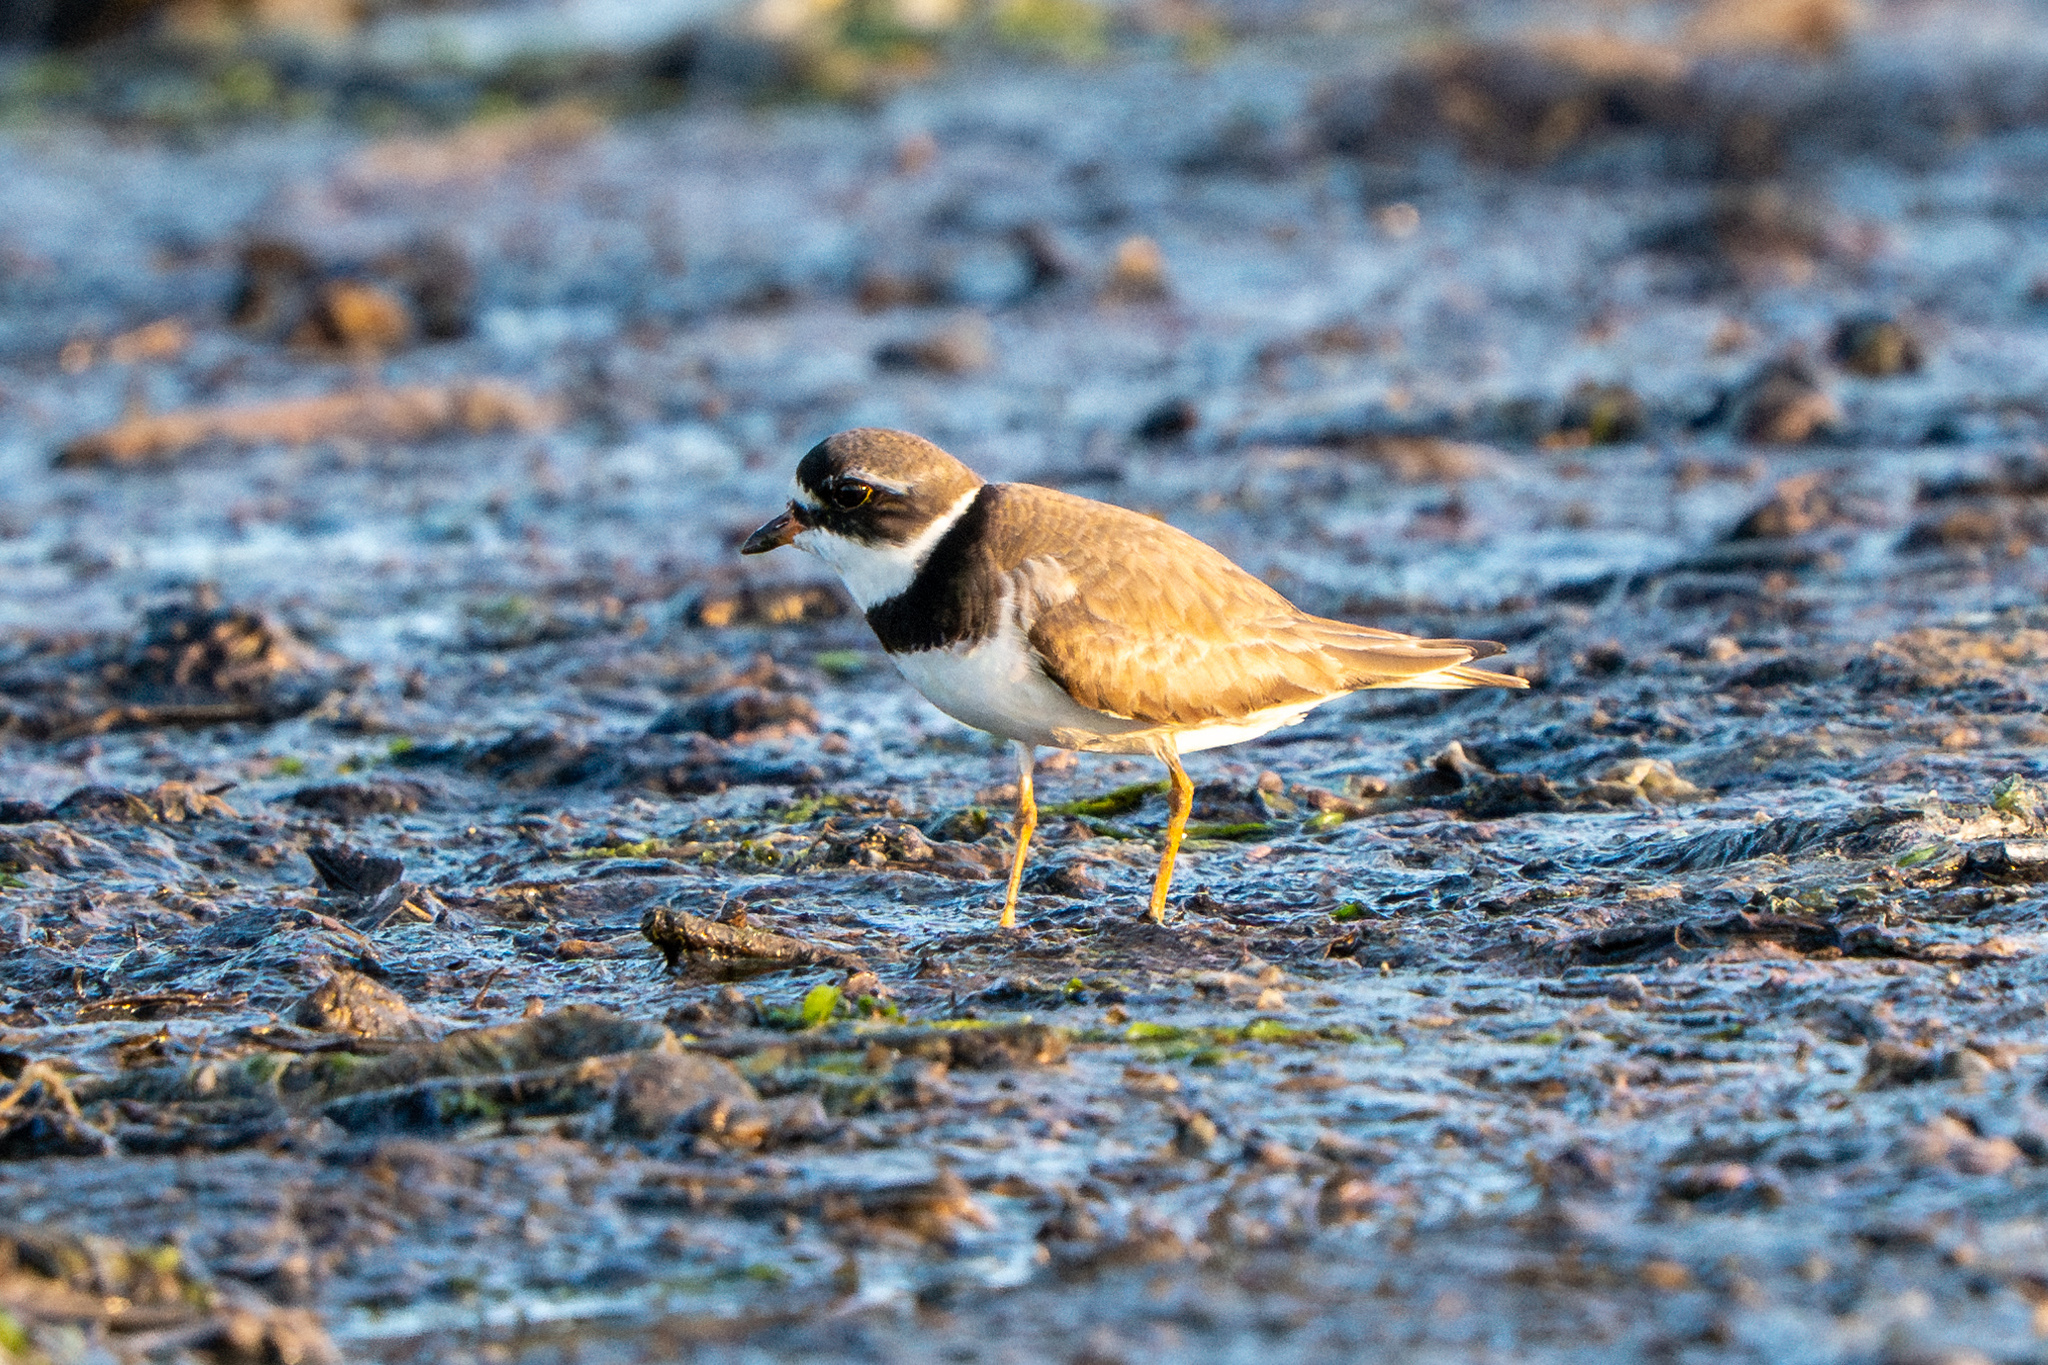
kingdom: Animalia
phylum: Chordata
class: Aves
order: Charadriiformes
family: Charadriidae
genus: Charadrius
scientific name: Charadrius semipalmatus
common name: Semipalmated plover
